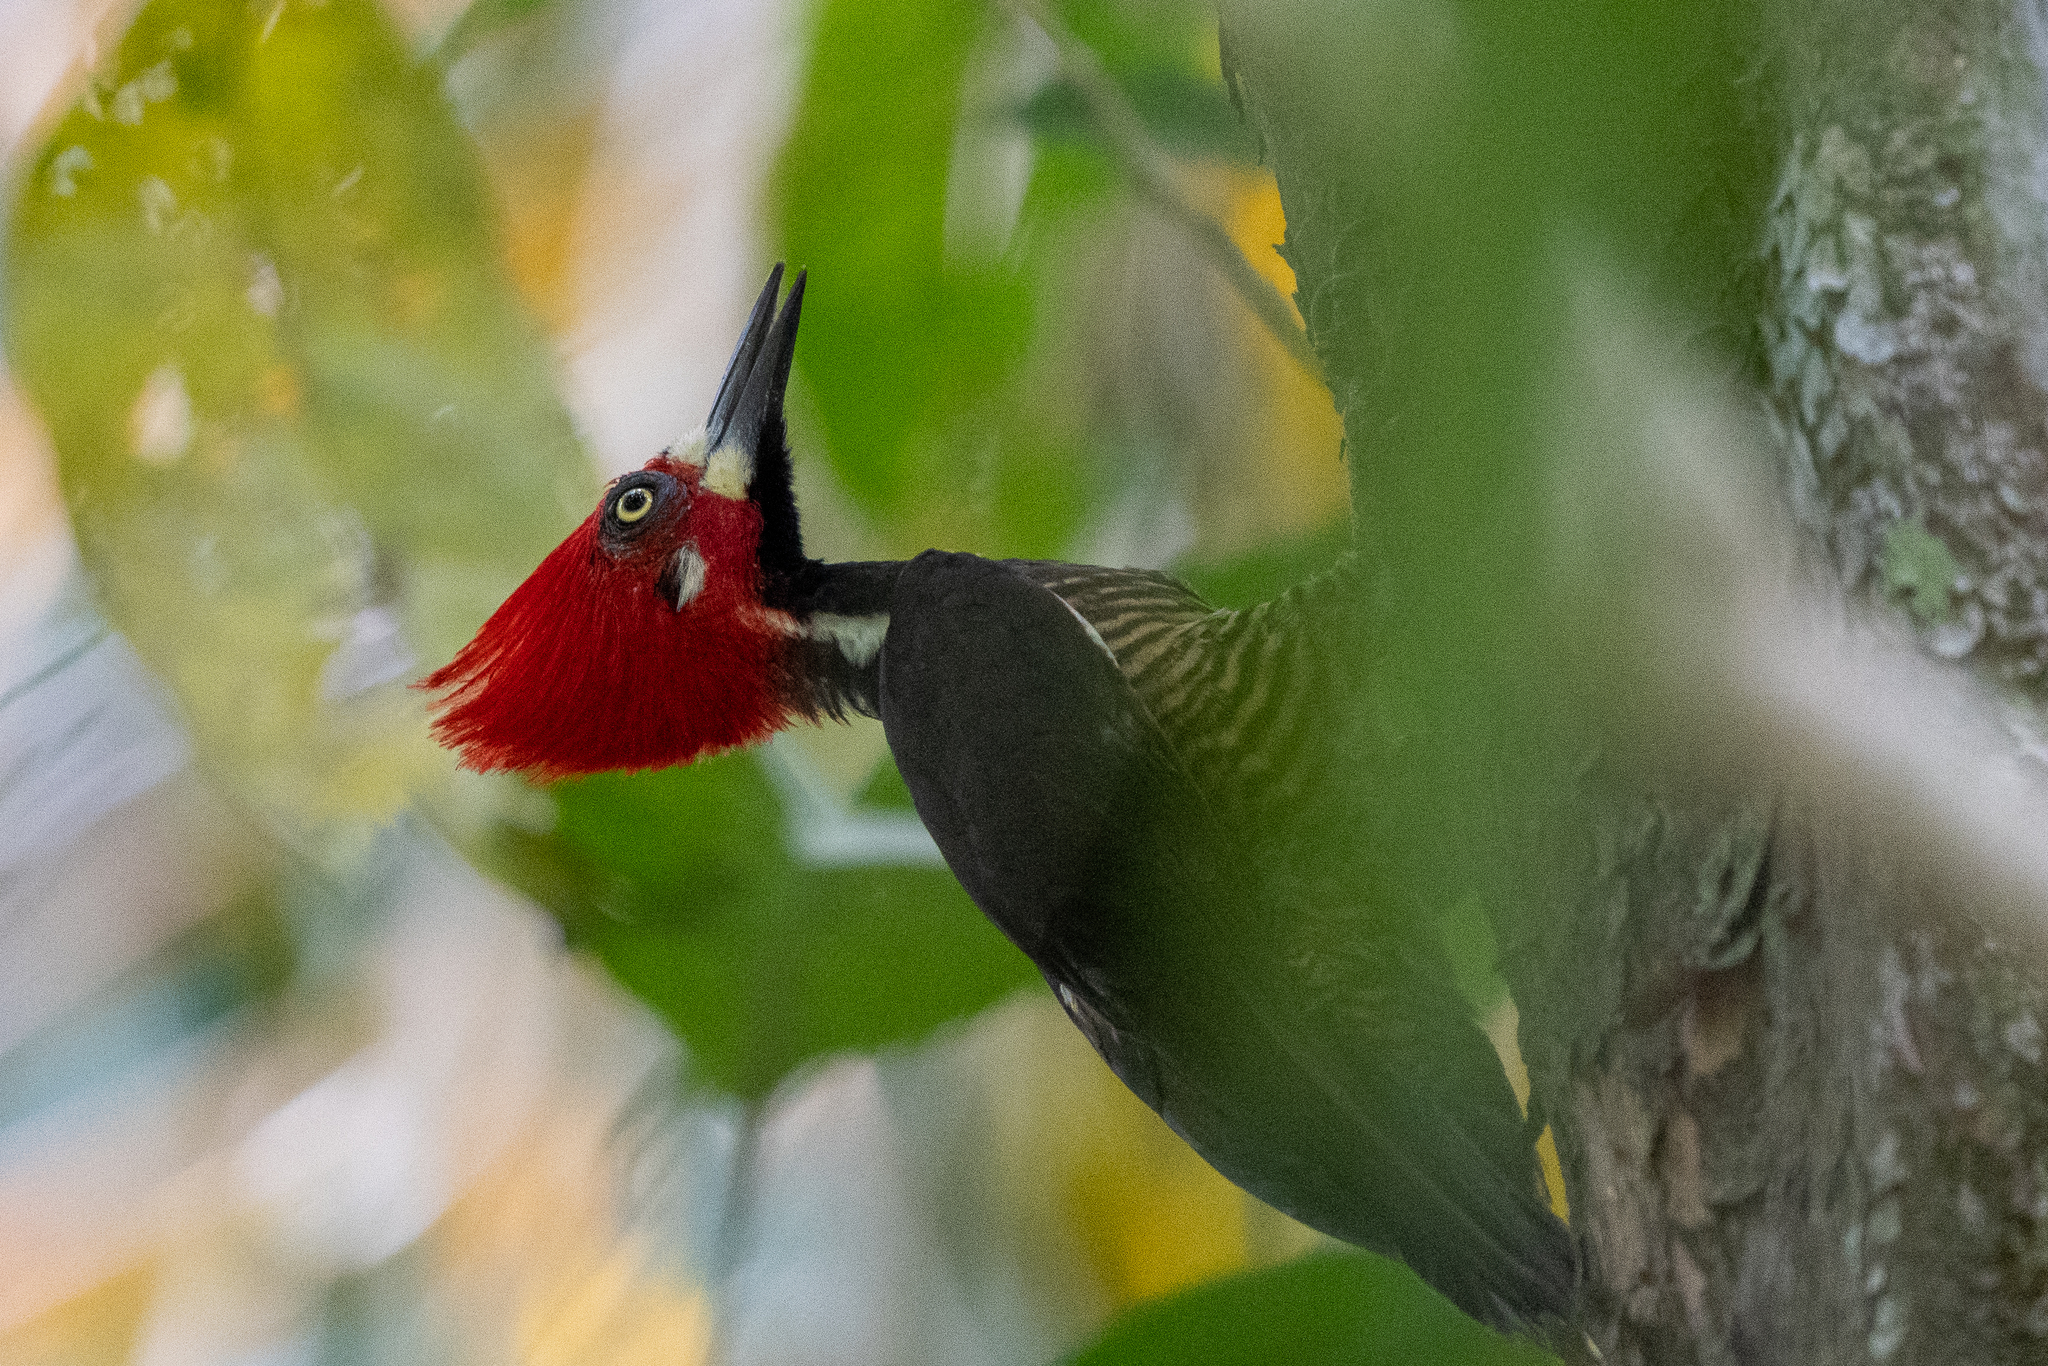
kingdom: Animalia
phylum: Chordata
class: Aves
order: Piciformes
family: Picidae
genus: Campephilus
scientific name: Campephilus melanoleucos
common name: Crimson-crested woodpecker
